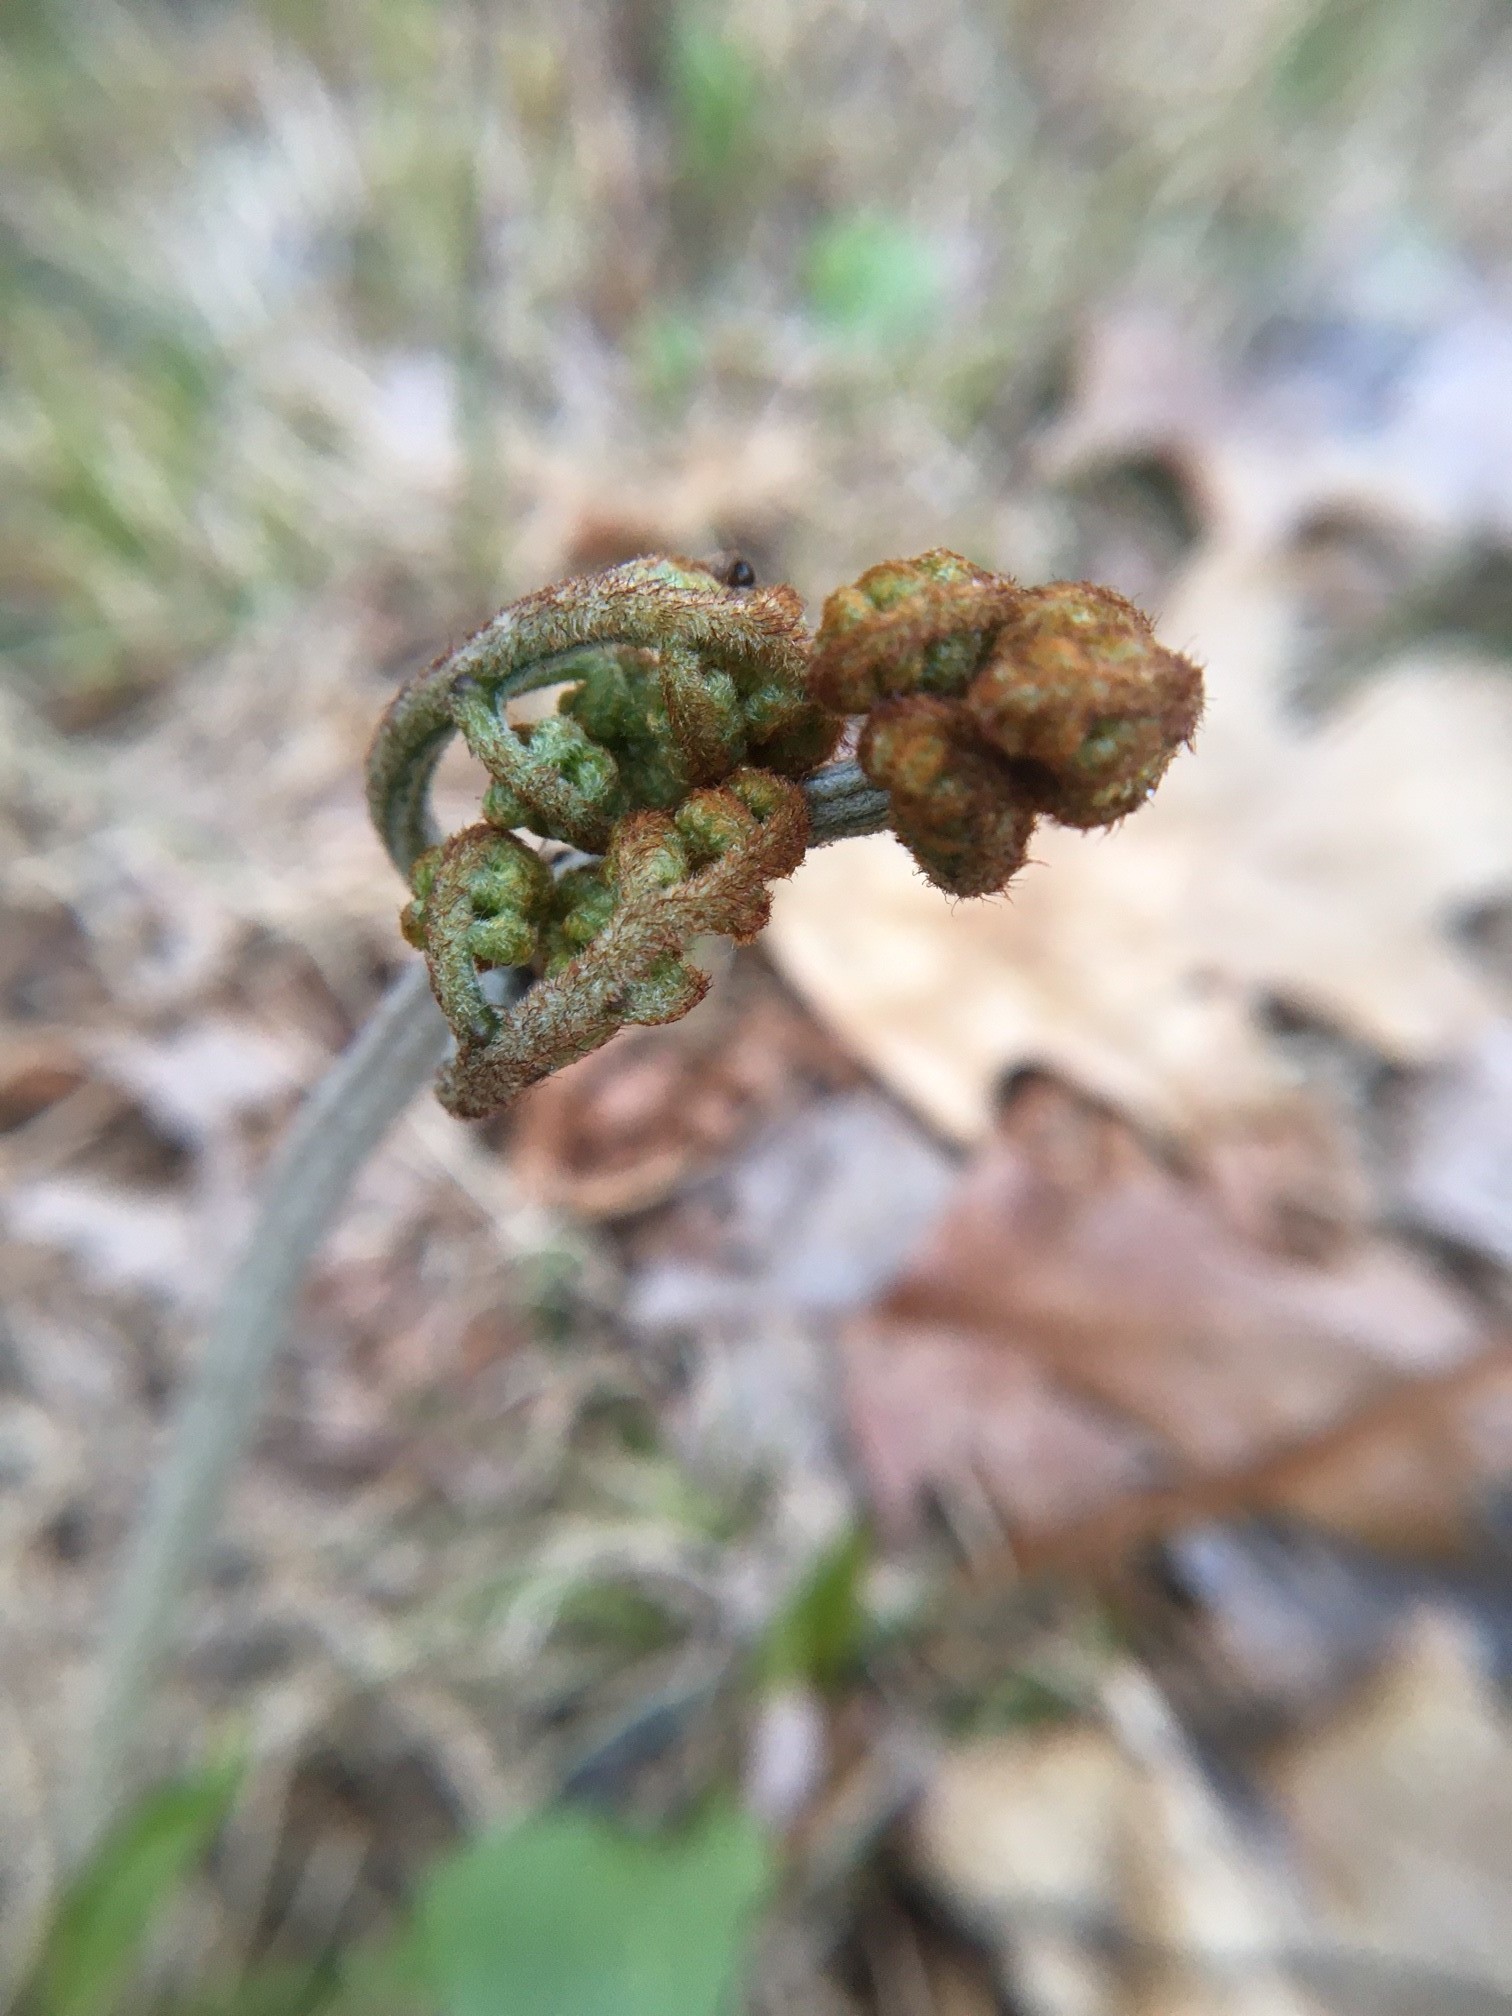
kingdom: Plantae
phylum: Tracheophyta
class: Polypodiopsida
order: Polypodiales
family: Dennstaedtiaceae
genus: Pteridium
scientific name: Pteridium aquilinum
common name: Bracken
